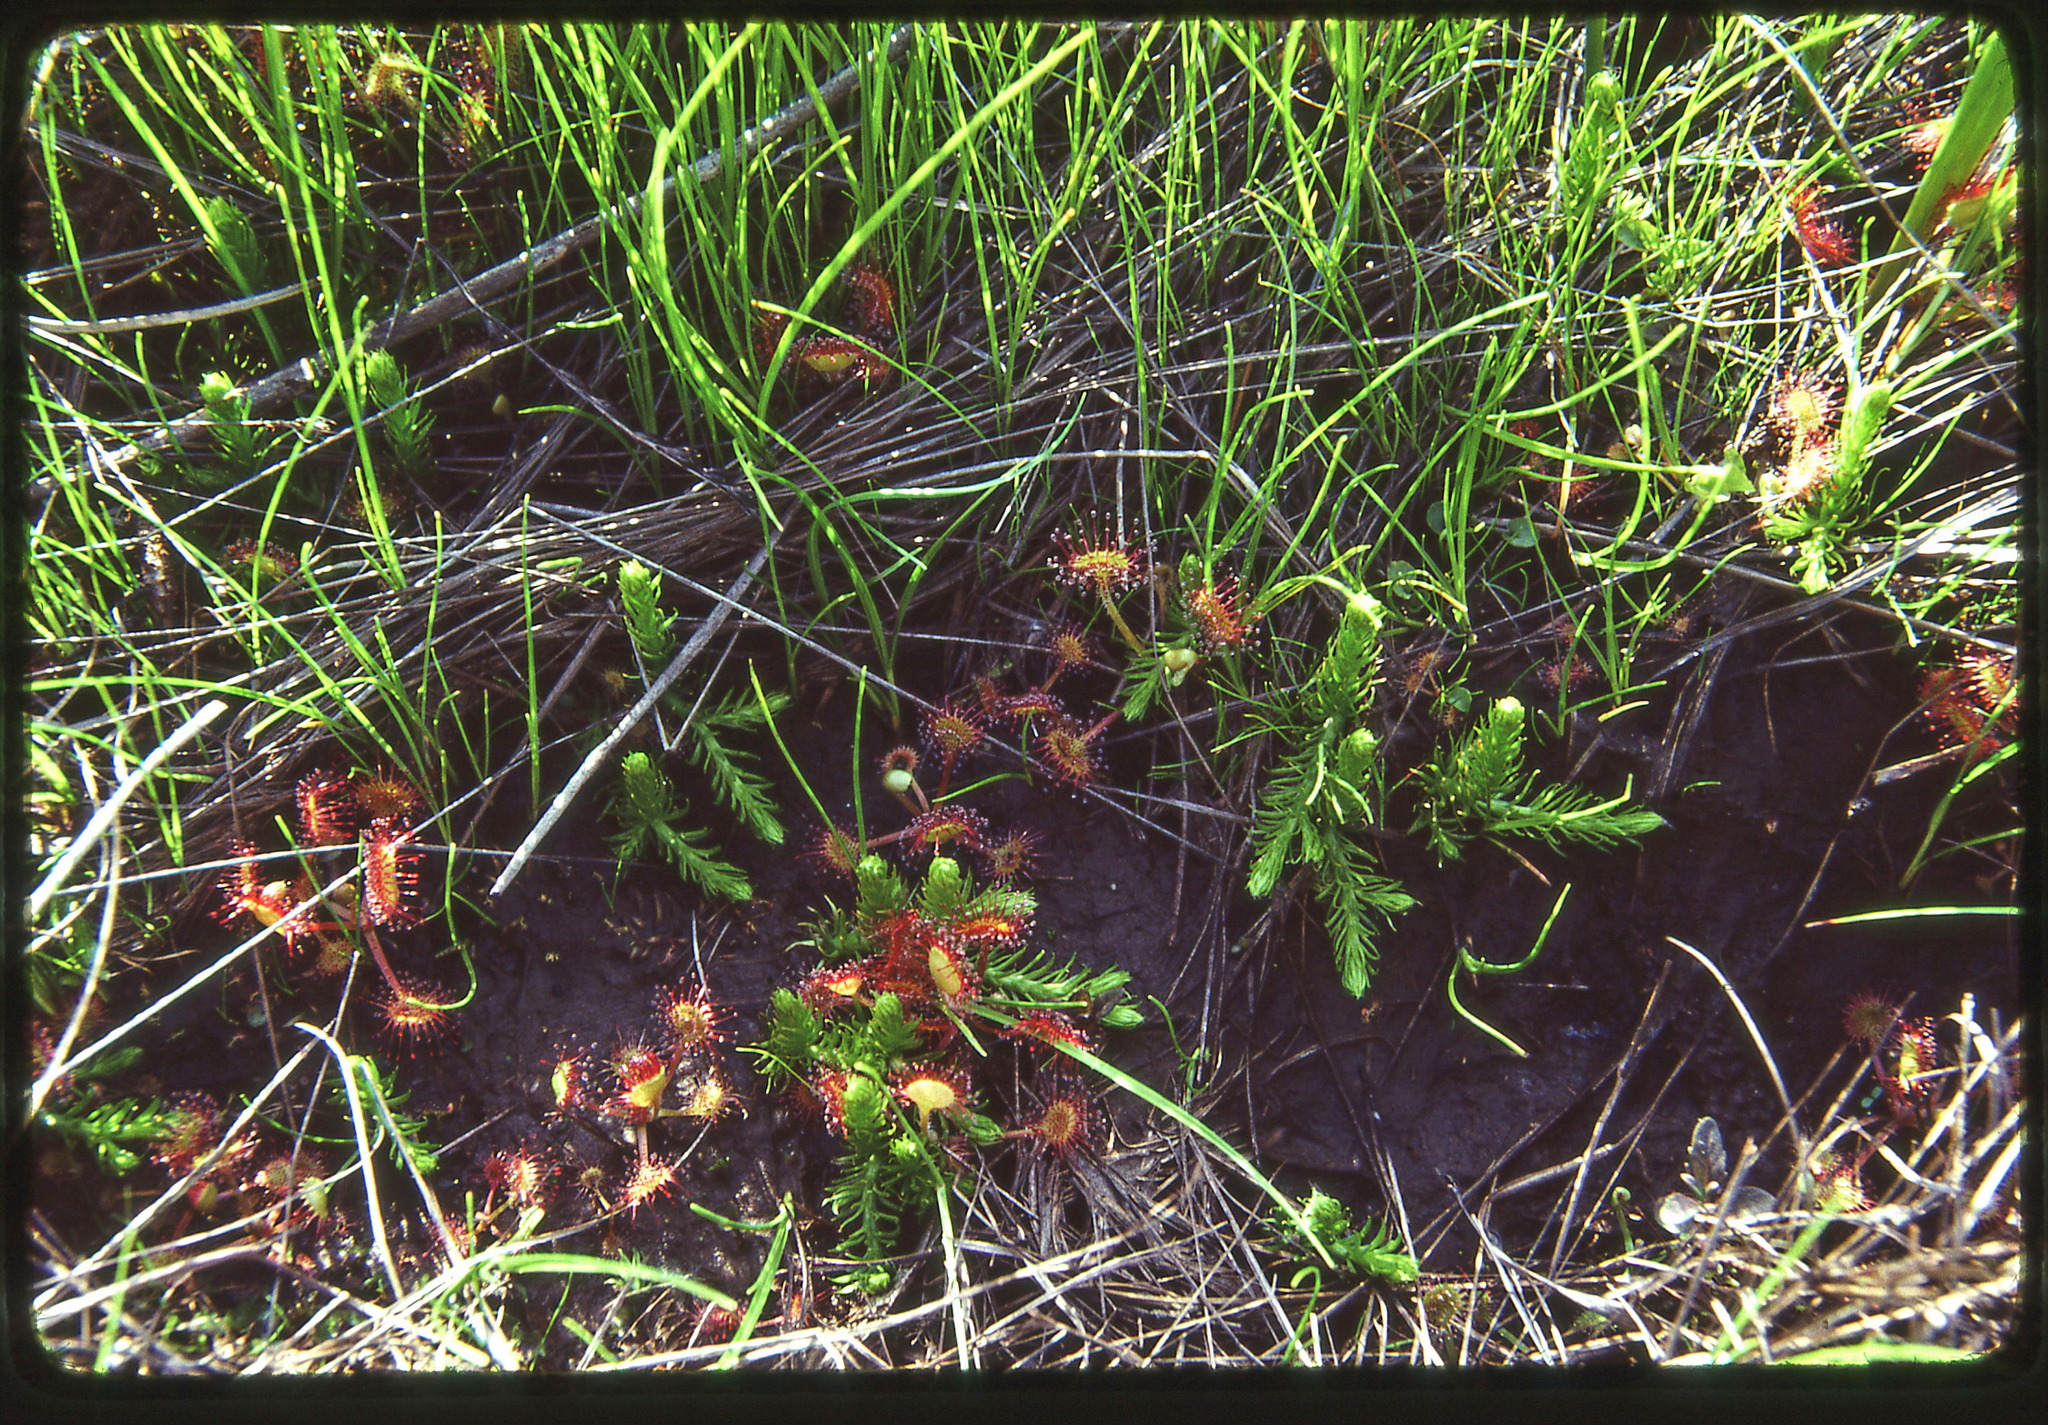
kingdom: Plantae
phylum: Tracheophyta
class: Lycopodiopsida
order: Lycopodiales
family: Lycopodiaceae
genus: Lycopodiella
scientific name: Lycopodiella inundata
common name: Marsh clubmoss
